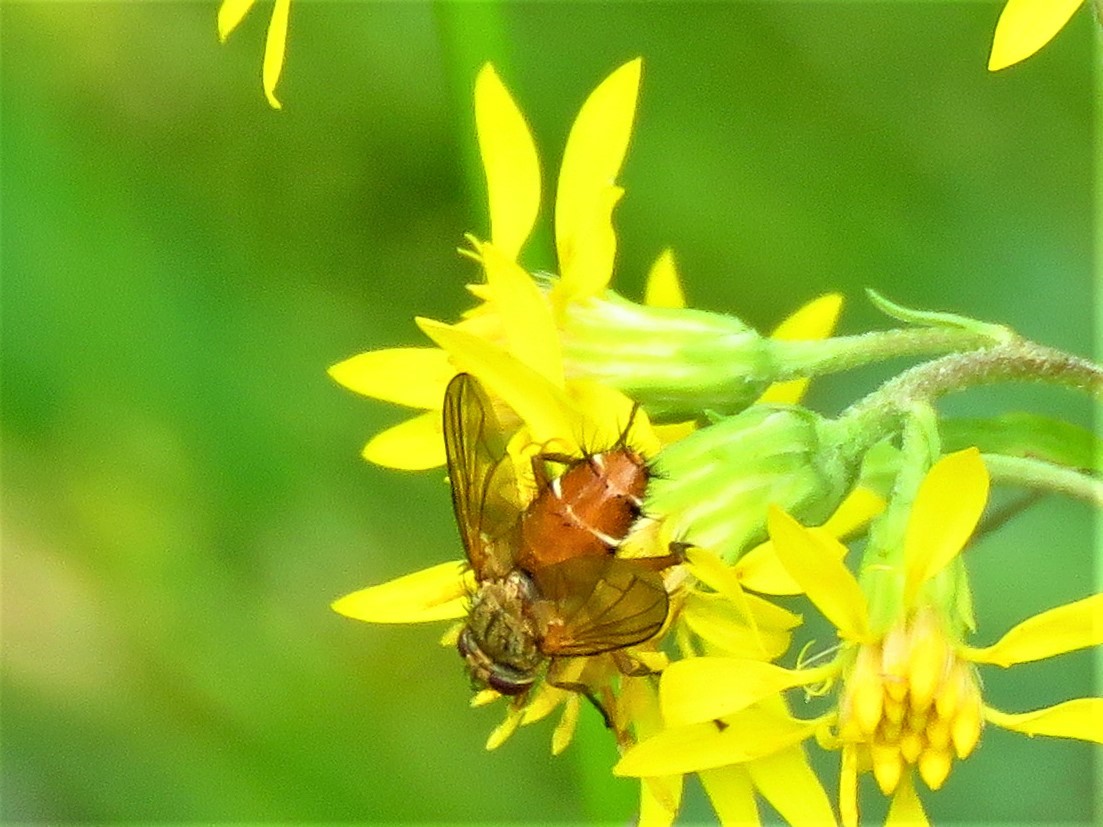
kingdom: Animalia
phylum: Arthropoda
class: Insecta
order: Diptera
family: Tachinidae
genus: Leskia
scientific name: Leskia aurea
